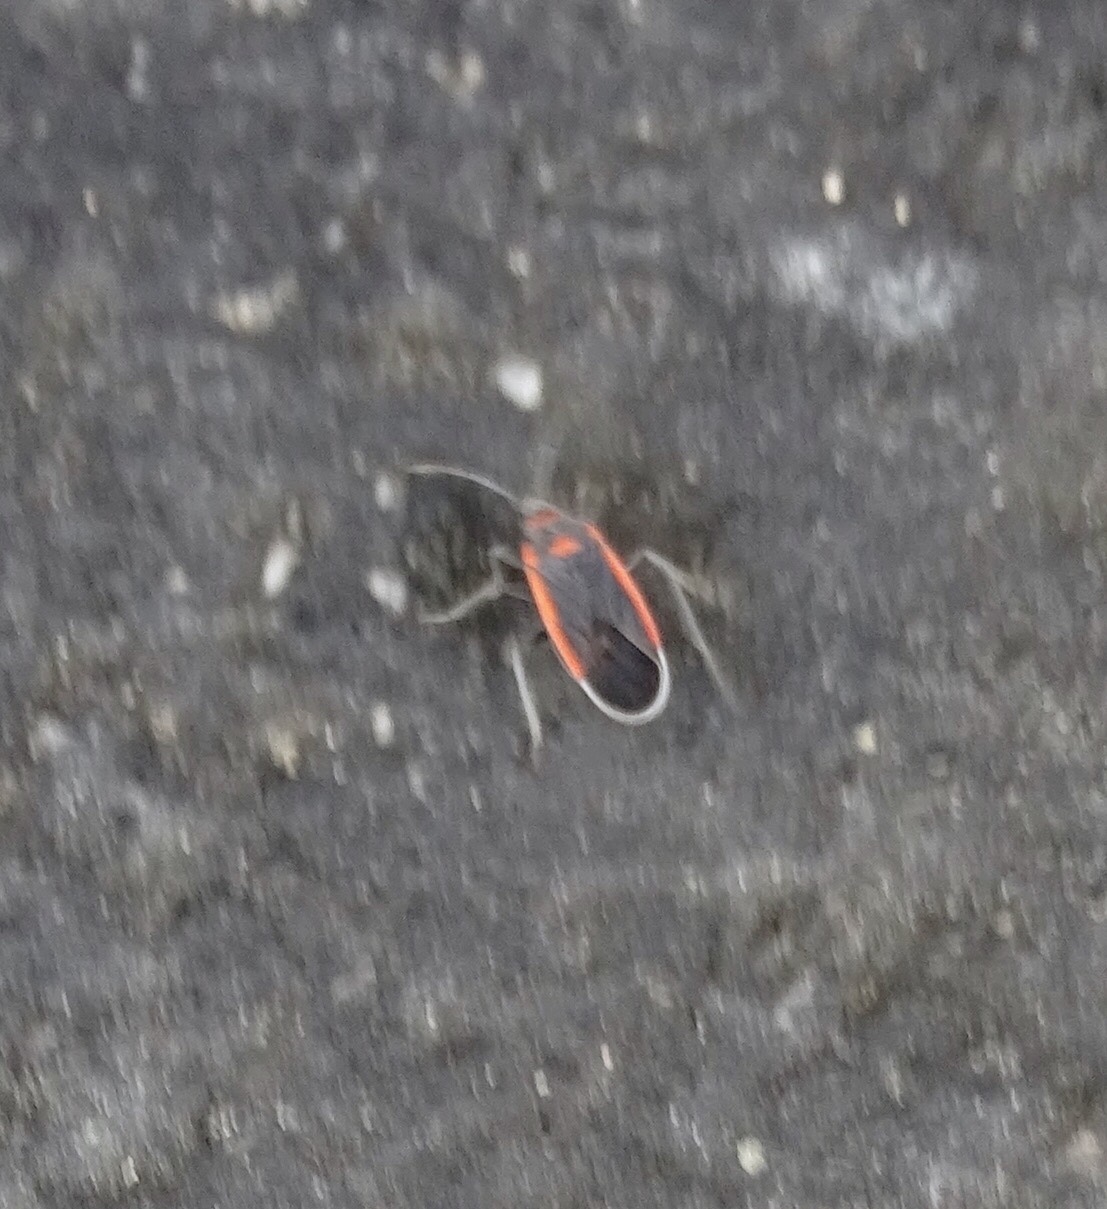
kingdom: Animalia
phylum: Arthropoda
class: Insecta
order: Hemiptera
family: Lygaeidae
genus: Melacoryphus
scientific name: Melacoryphus lateralis
